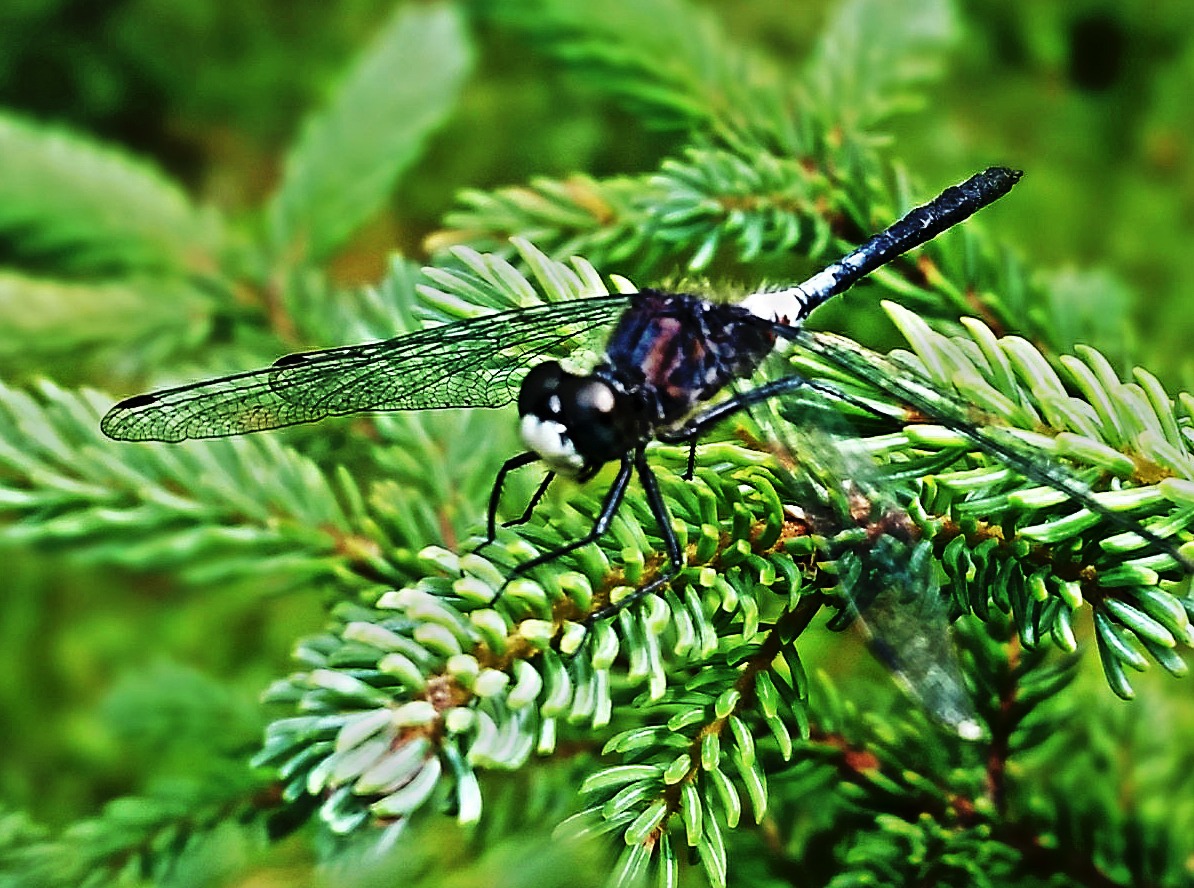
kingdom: Animalia
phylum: Arthropoda
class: Insecta
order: Odonata
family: Libellulidae
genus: Leucorrhinia
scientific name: Leucorrhinia
